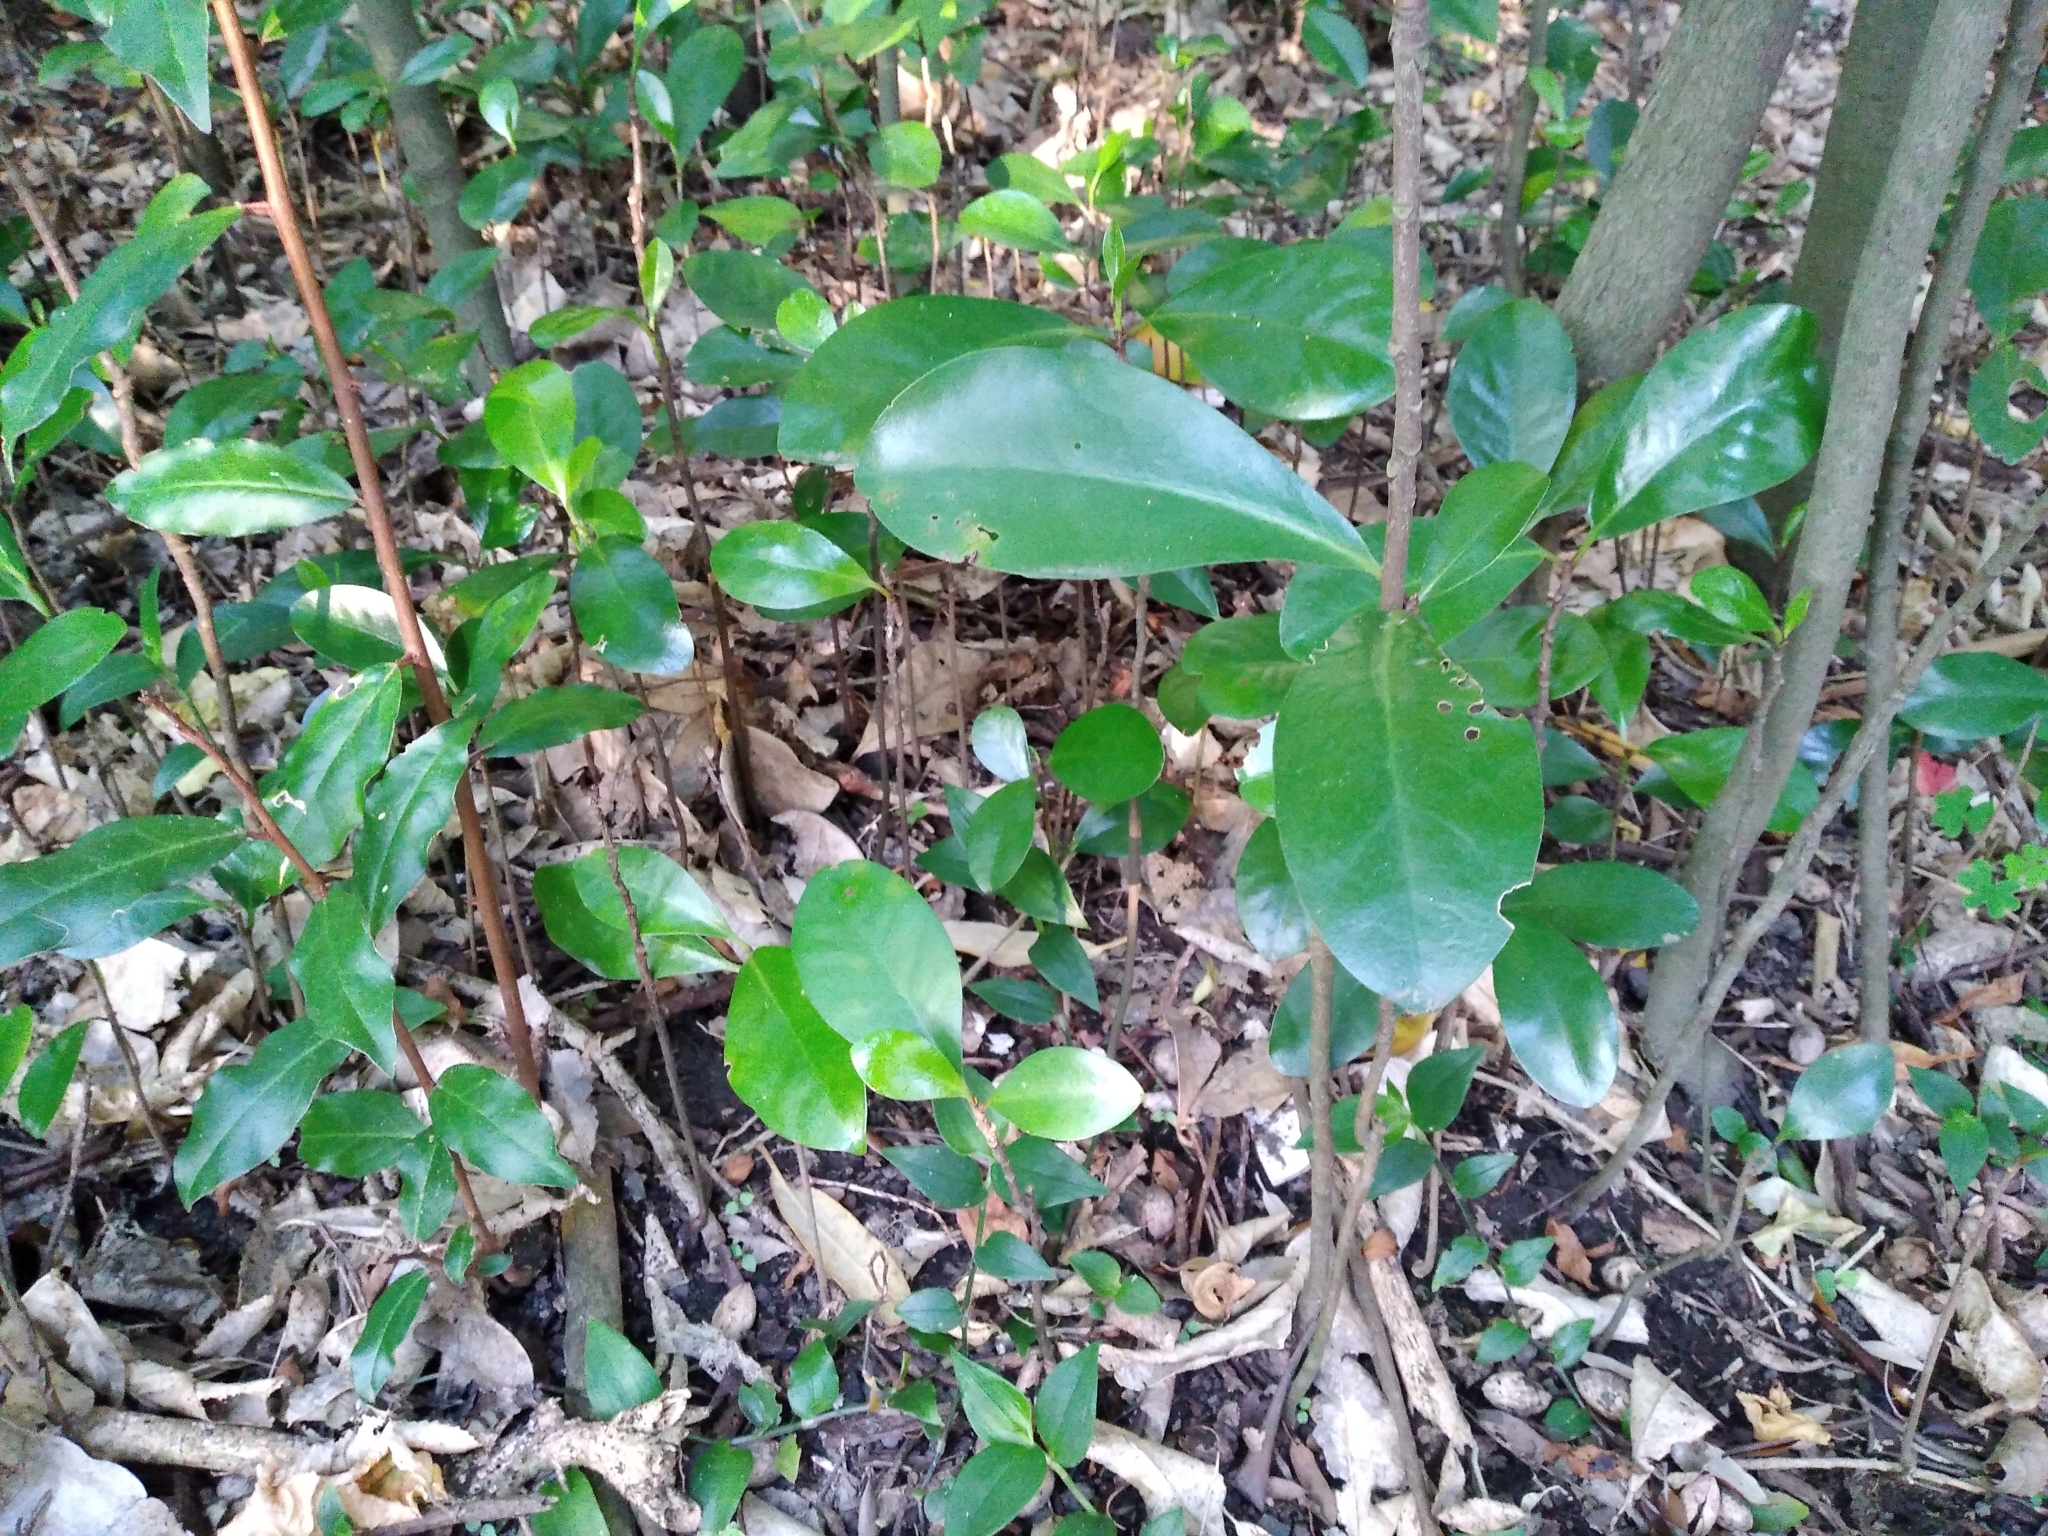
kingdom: Plantae
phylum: Tracheophyta
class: Magnoliopsida
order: Cucurbitales
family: Corynocarpaceae
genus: Corynocarpus
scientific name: Corynocarpus laevigatus
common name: New zealand laurel
